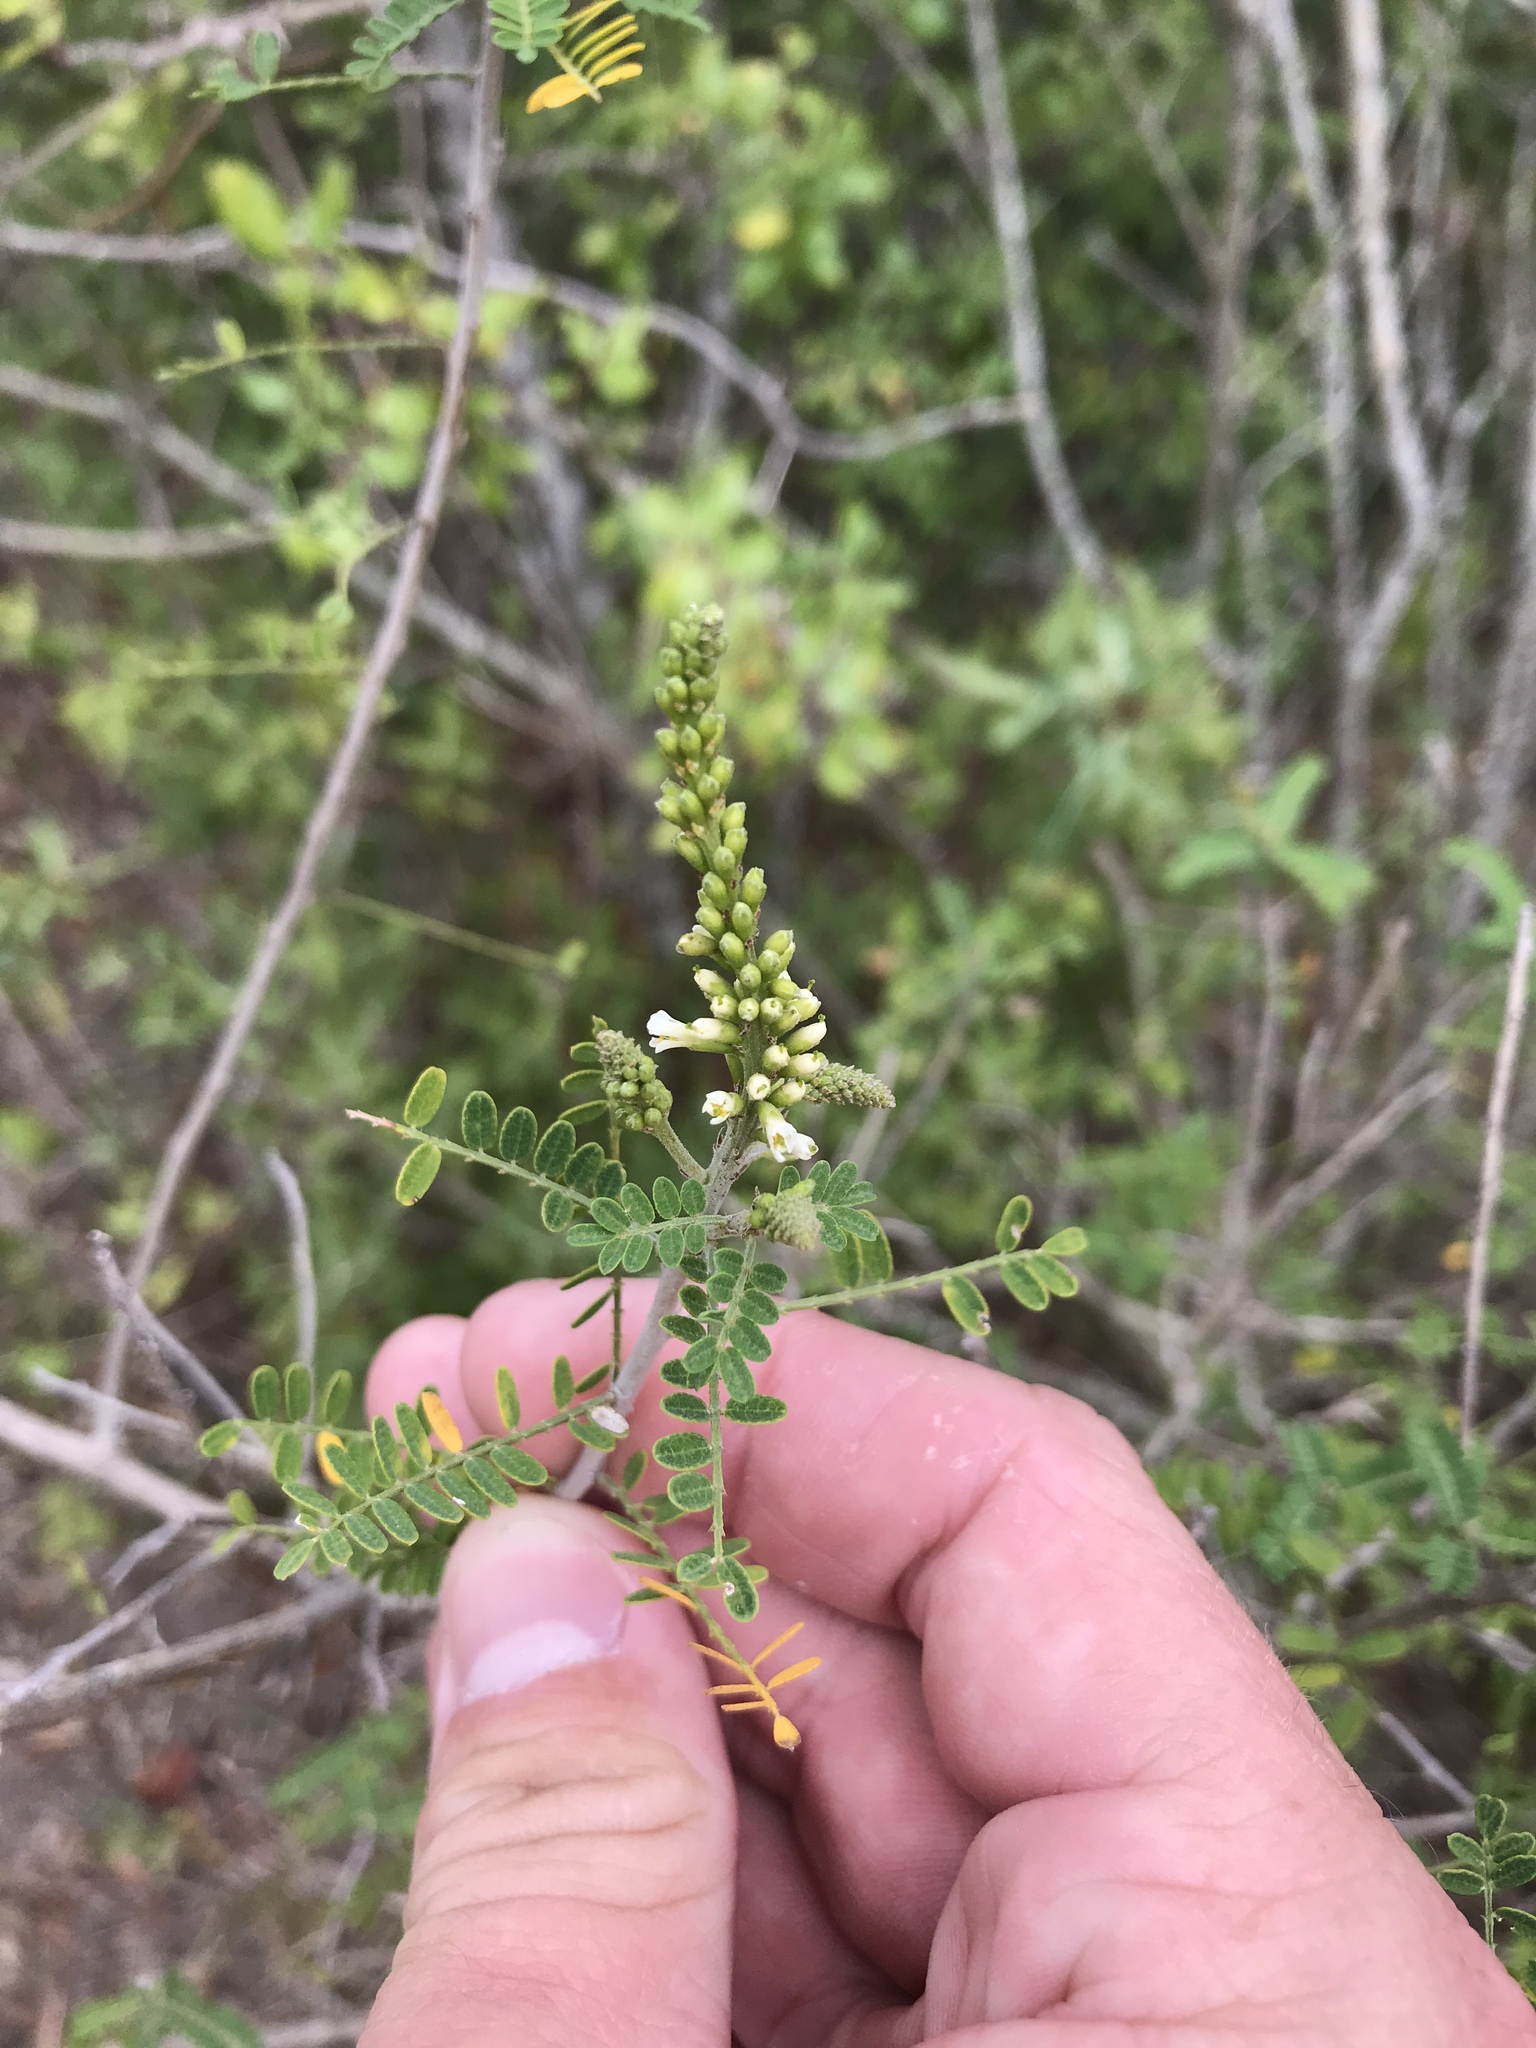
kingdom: Plantae
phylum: Tracheophyta
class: Magnoliopsida
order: Fabales
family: Fabaceae
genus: Eysenhardtia
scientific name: Eysenhardtia texana
